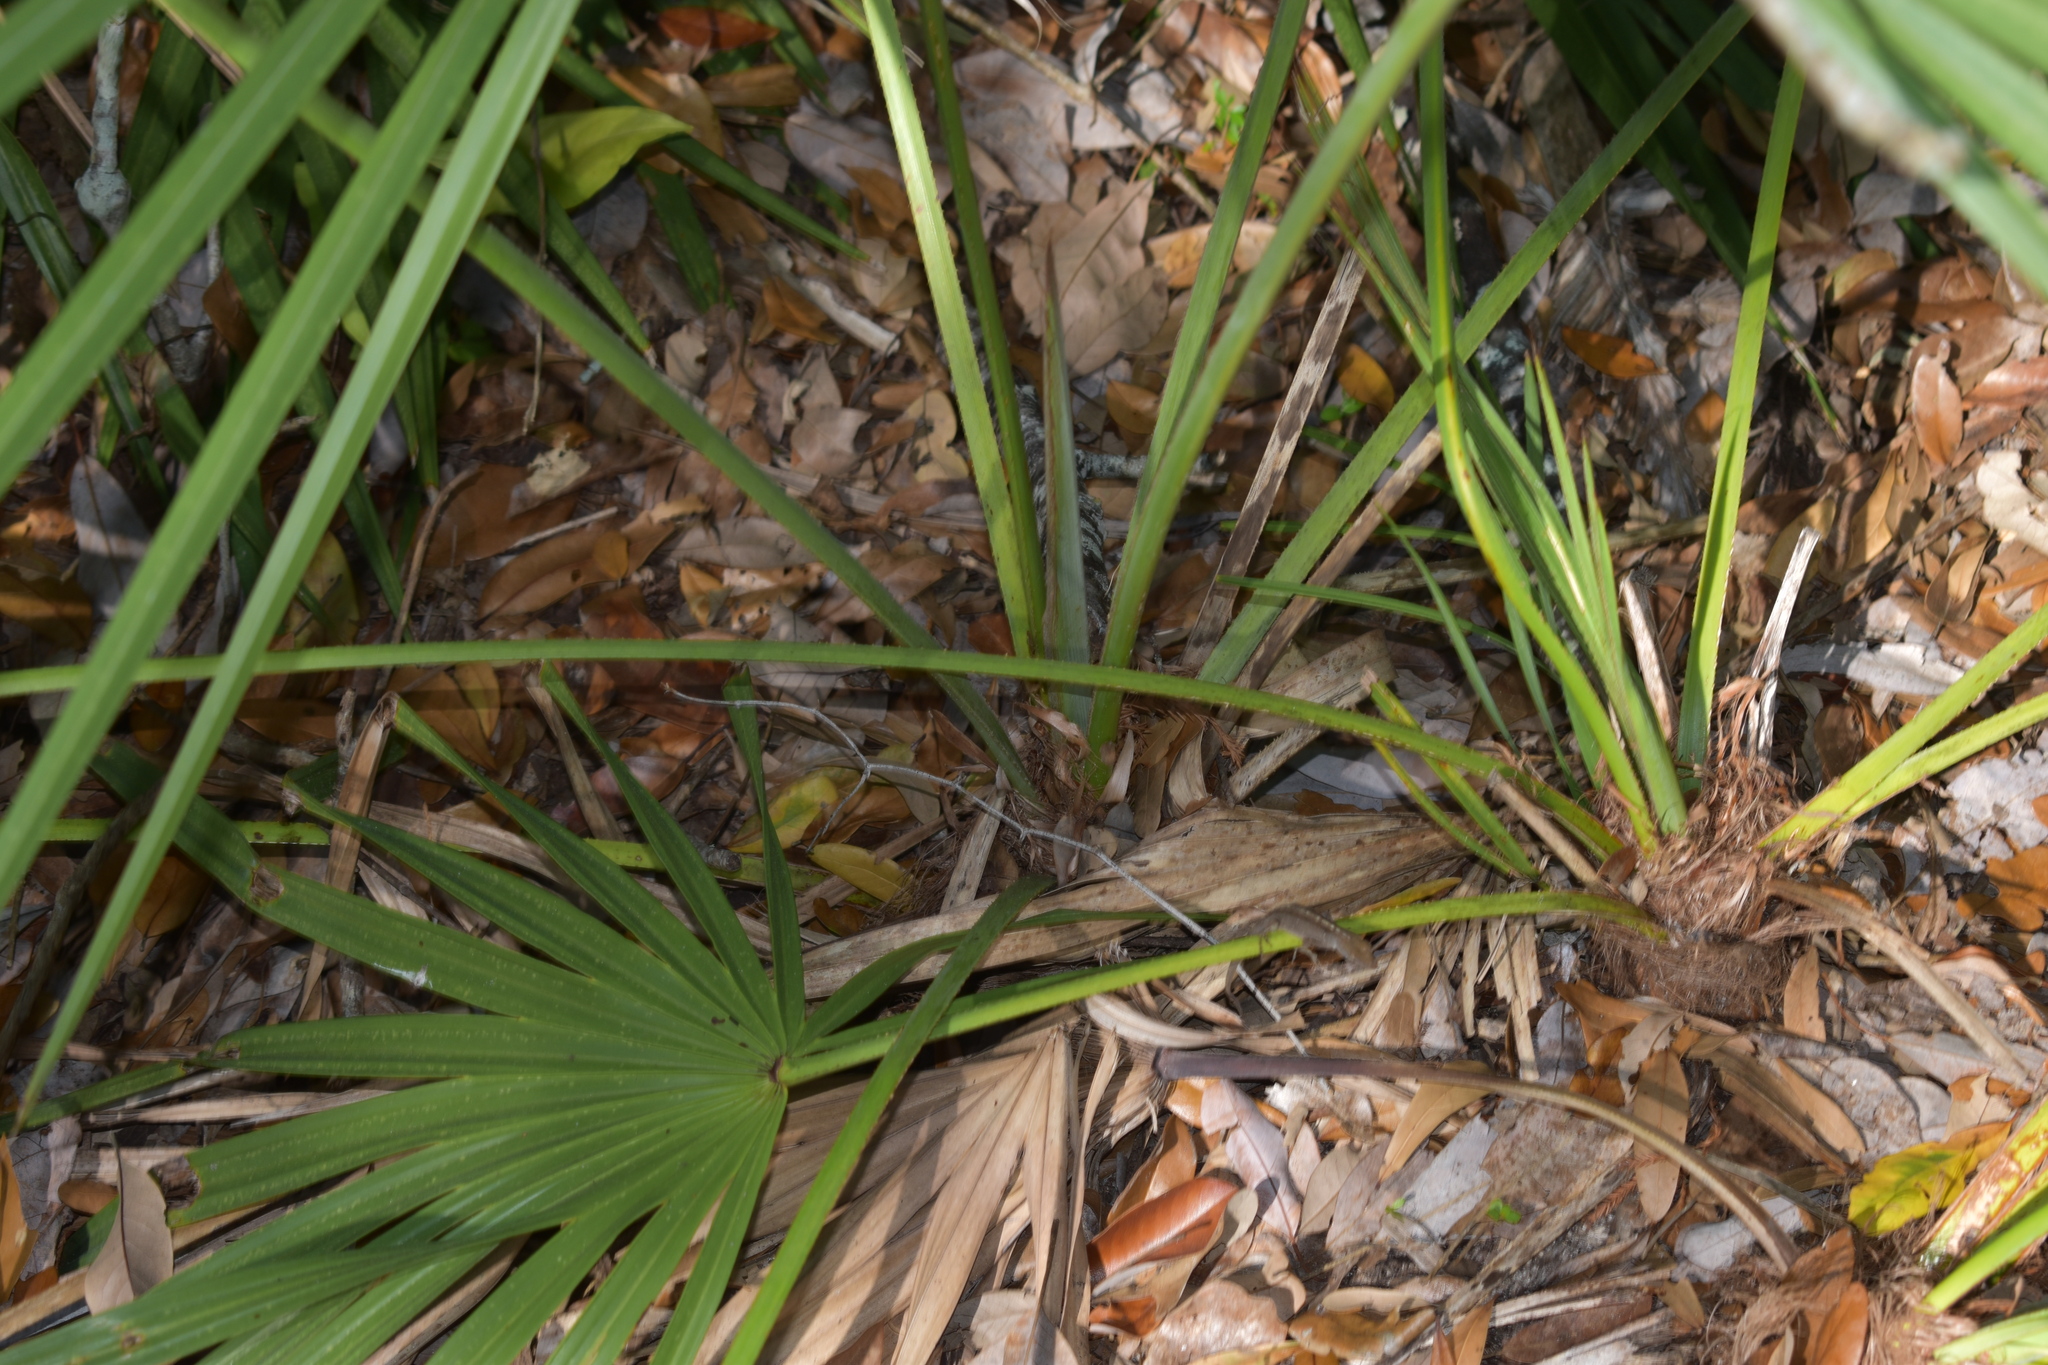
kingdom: Plantae
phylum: Tracheophyta
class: Liliopsida
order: Arecales
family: Arecaceae
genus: Serenoa
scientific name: Serenoa repens
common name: Saw-palmetto
